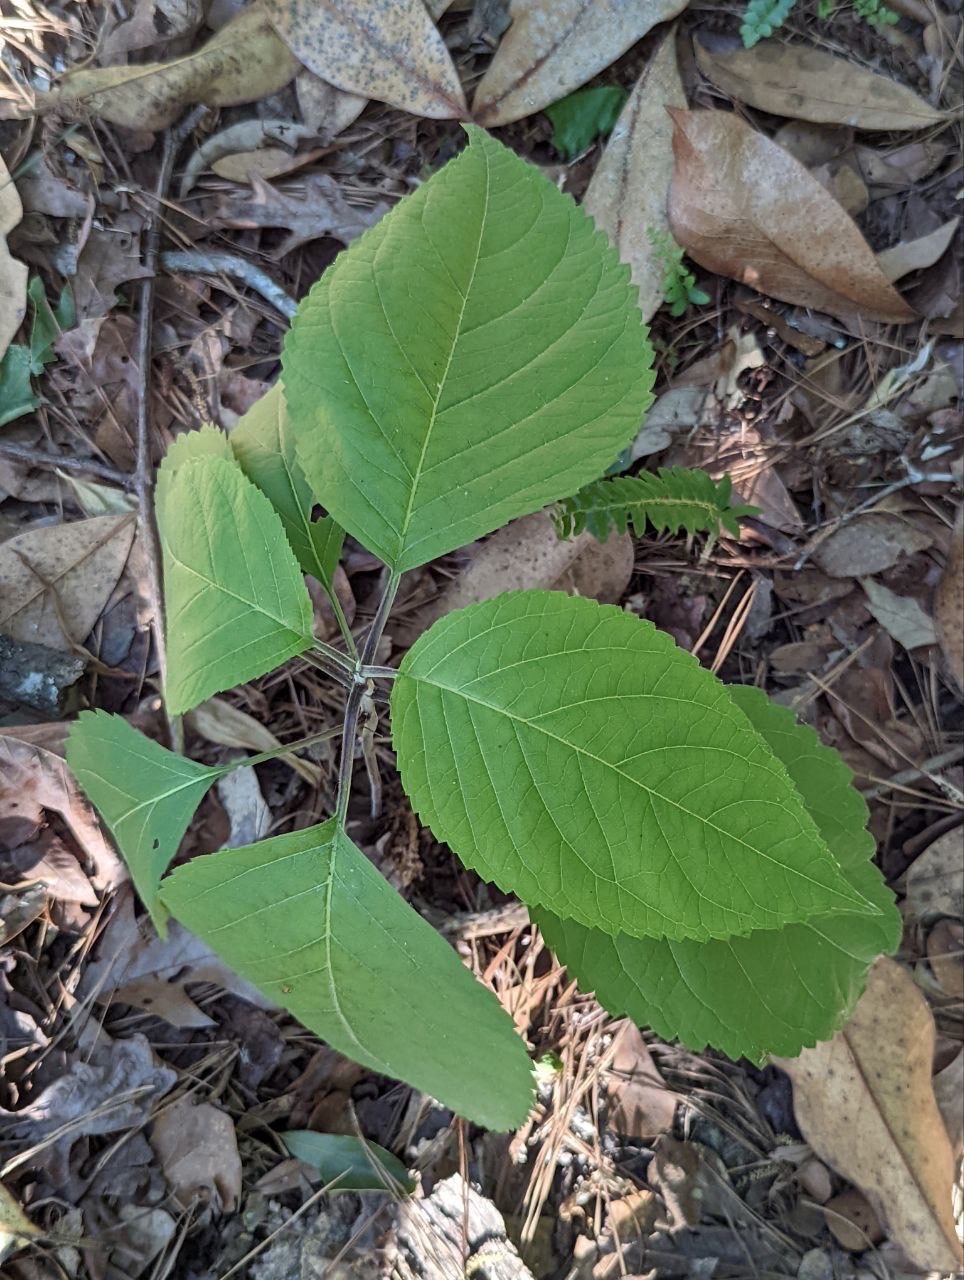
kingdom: Plantae
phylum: Tracheophyta
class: Magnoliopsida
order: Lamiales
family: Lamiaceae
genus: Callicarpa
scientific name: Callicarpa americana
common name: American beautyberry
